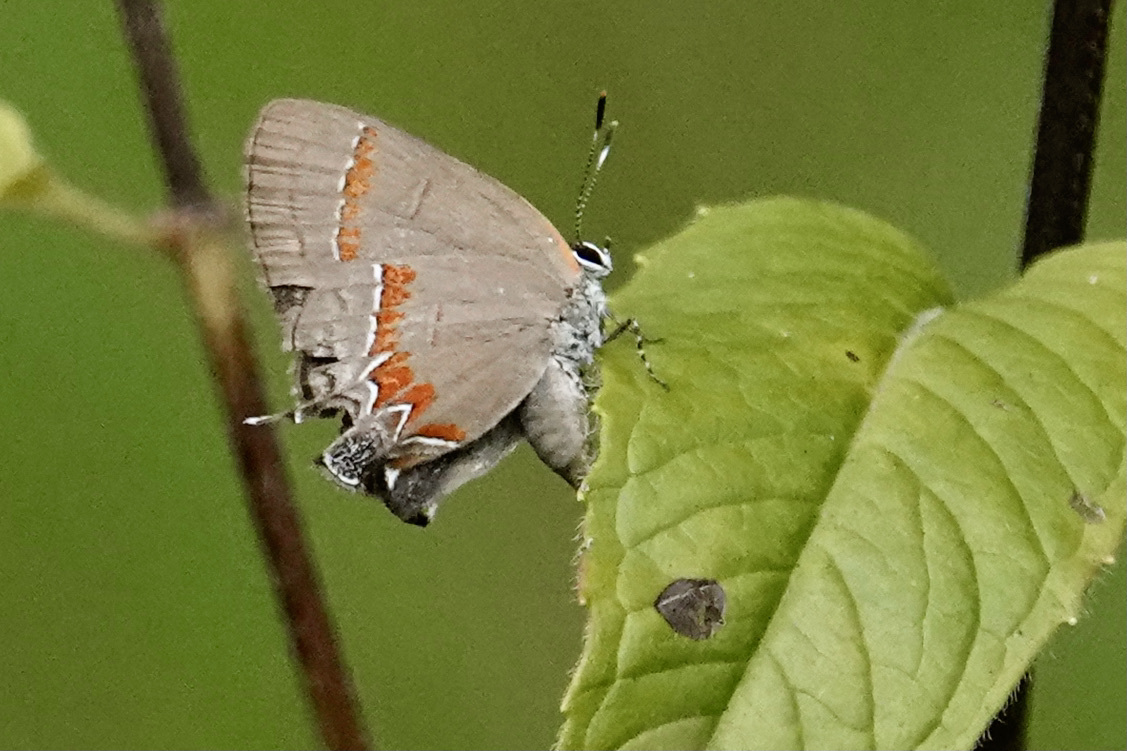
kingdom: Animalia
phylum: Arthropoda
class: Insecta
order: Lepidoptera
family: Lycaenidae
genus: Calycopis
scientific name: Calycopis cecrops
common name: Red-banded hairstreak
